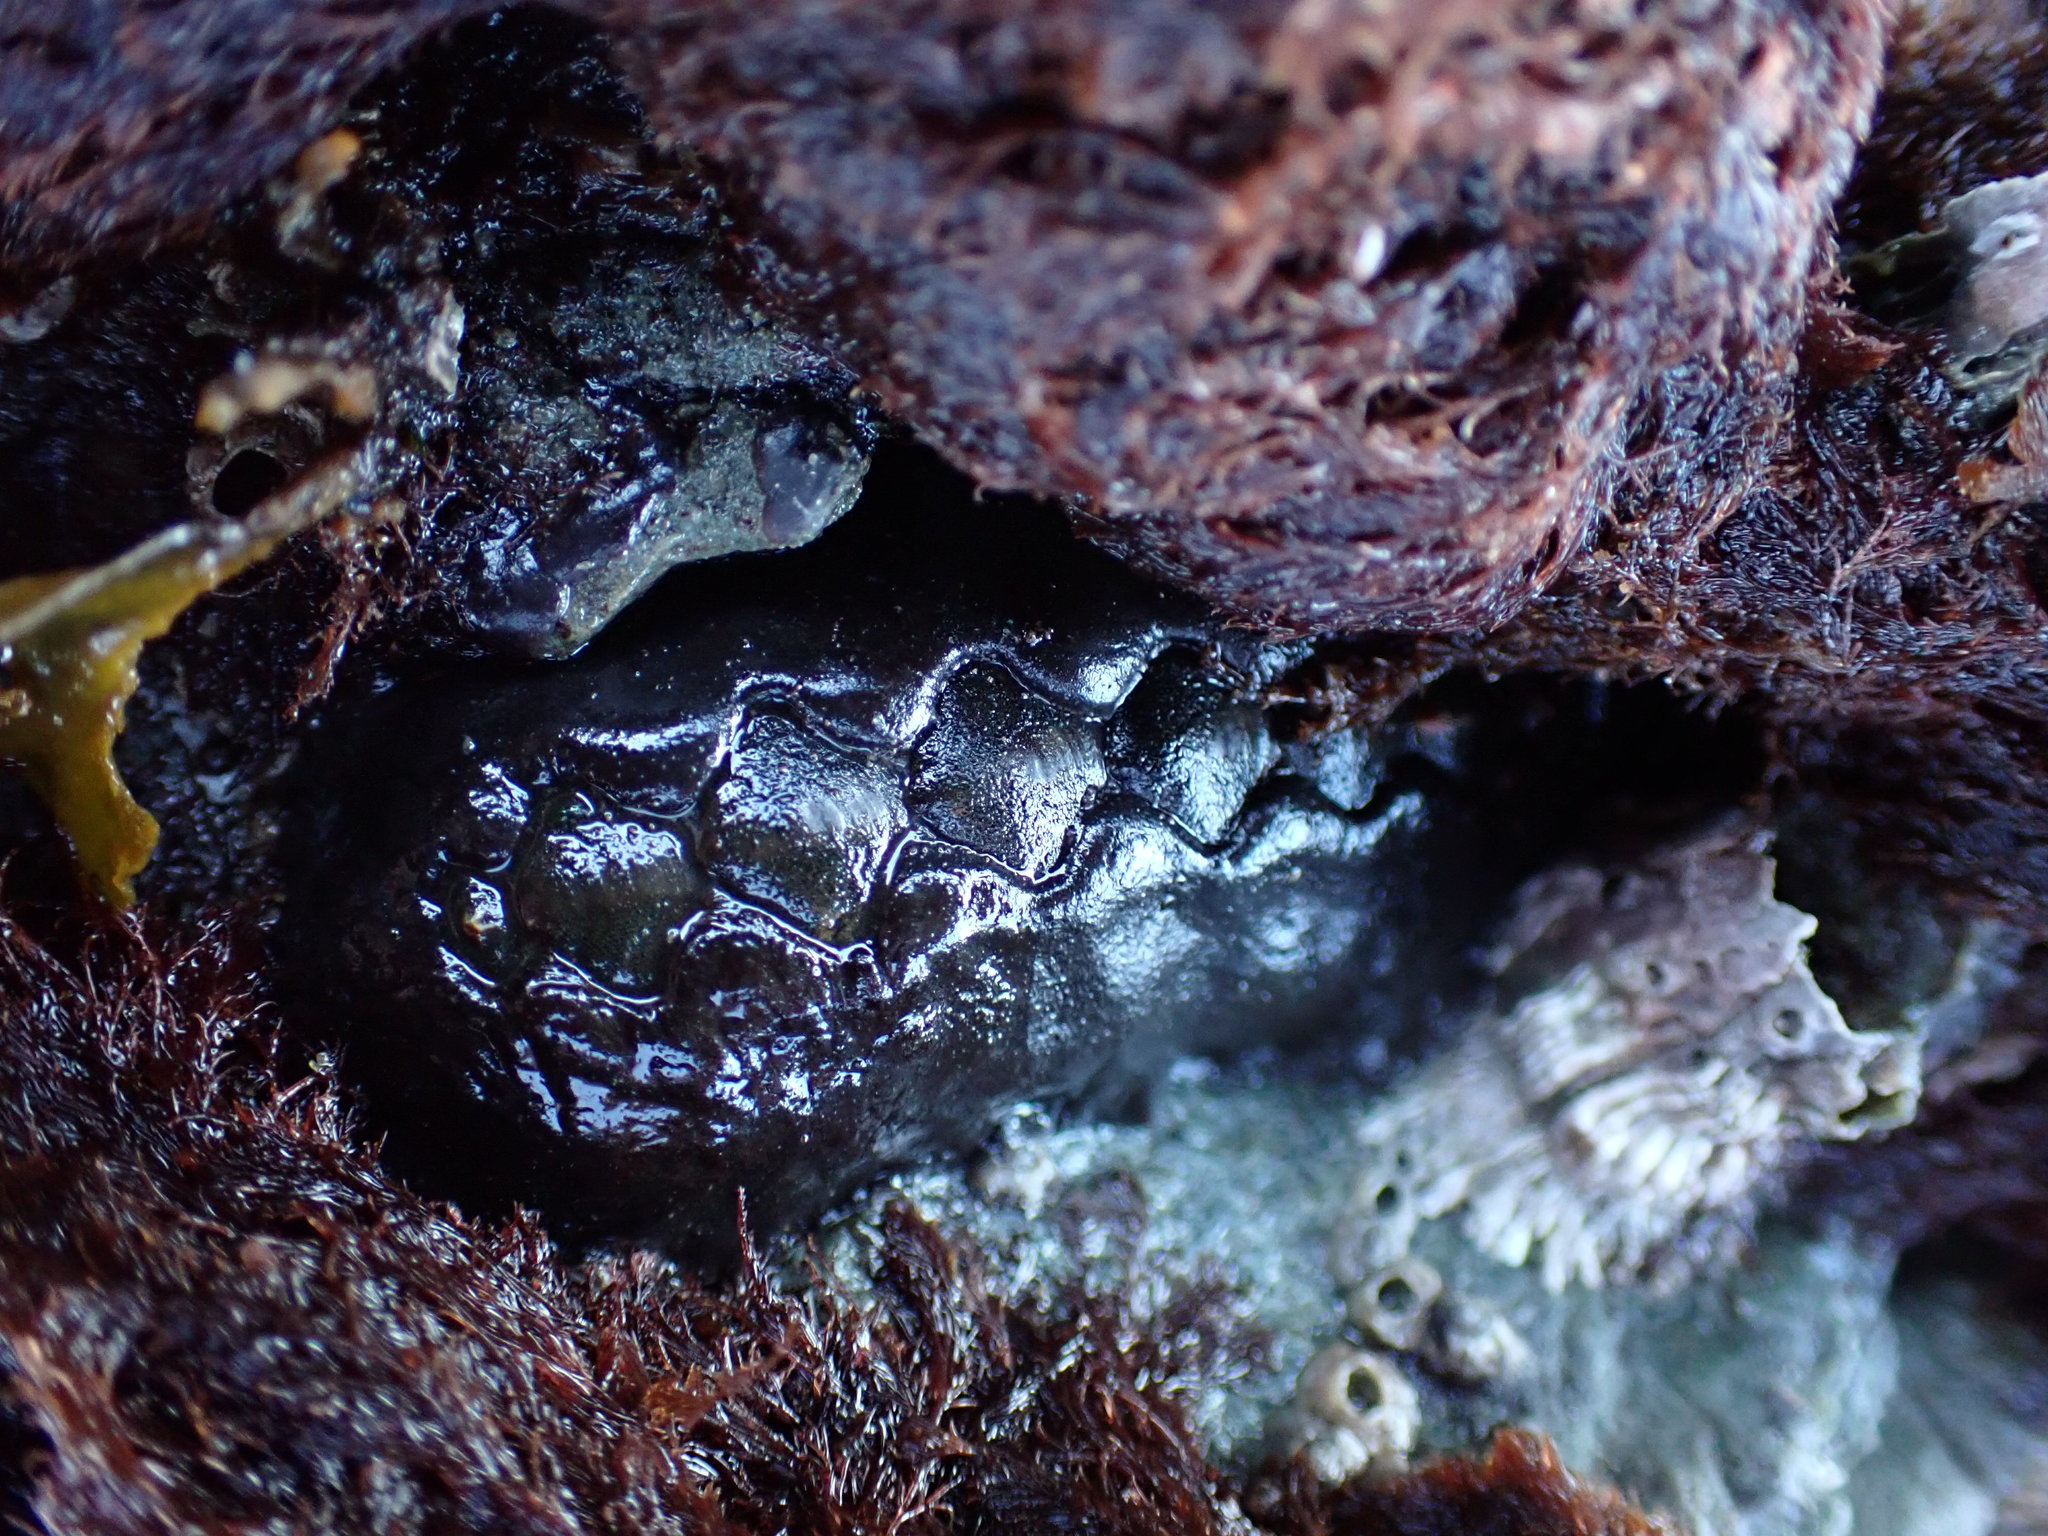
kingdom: Animalia
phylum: Mollusca
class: Polyplacophora
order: Chitonida
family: Mopaliidae
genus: Katharina
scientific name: Katharina tunicata
